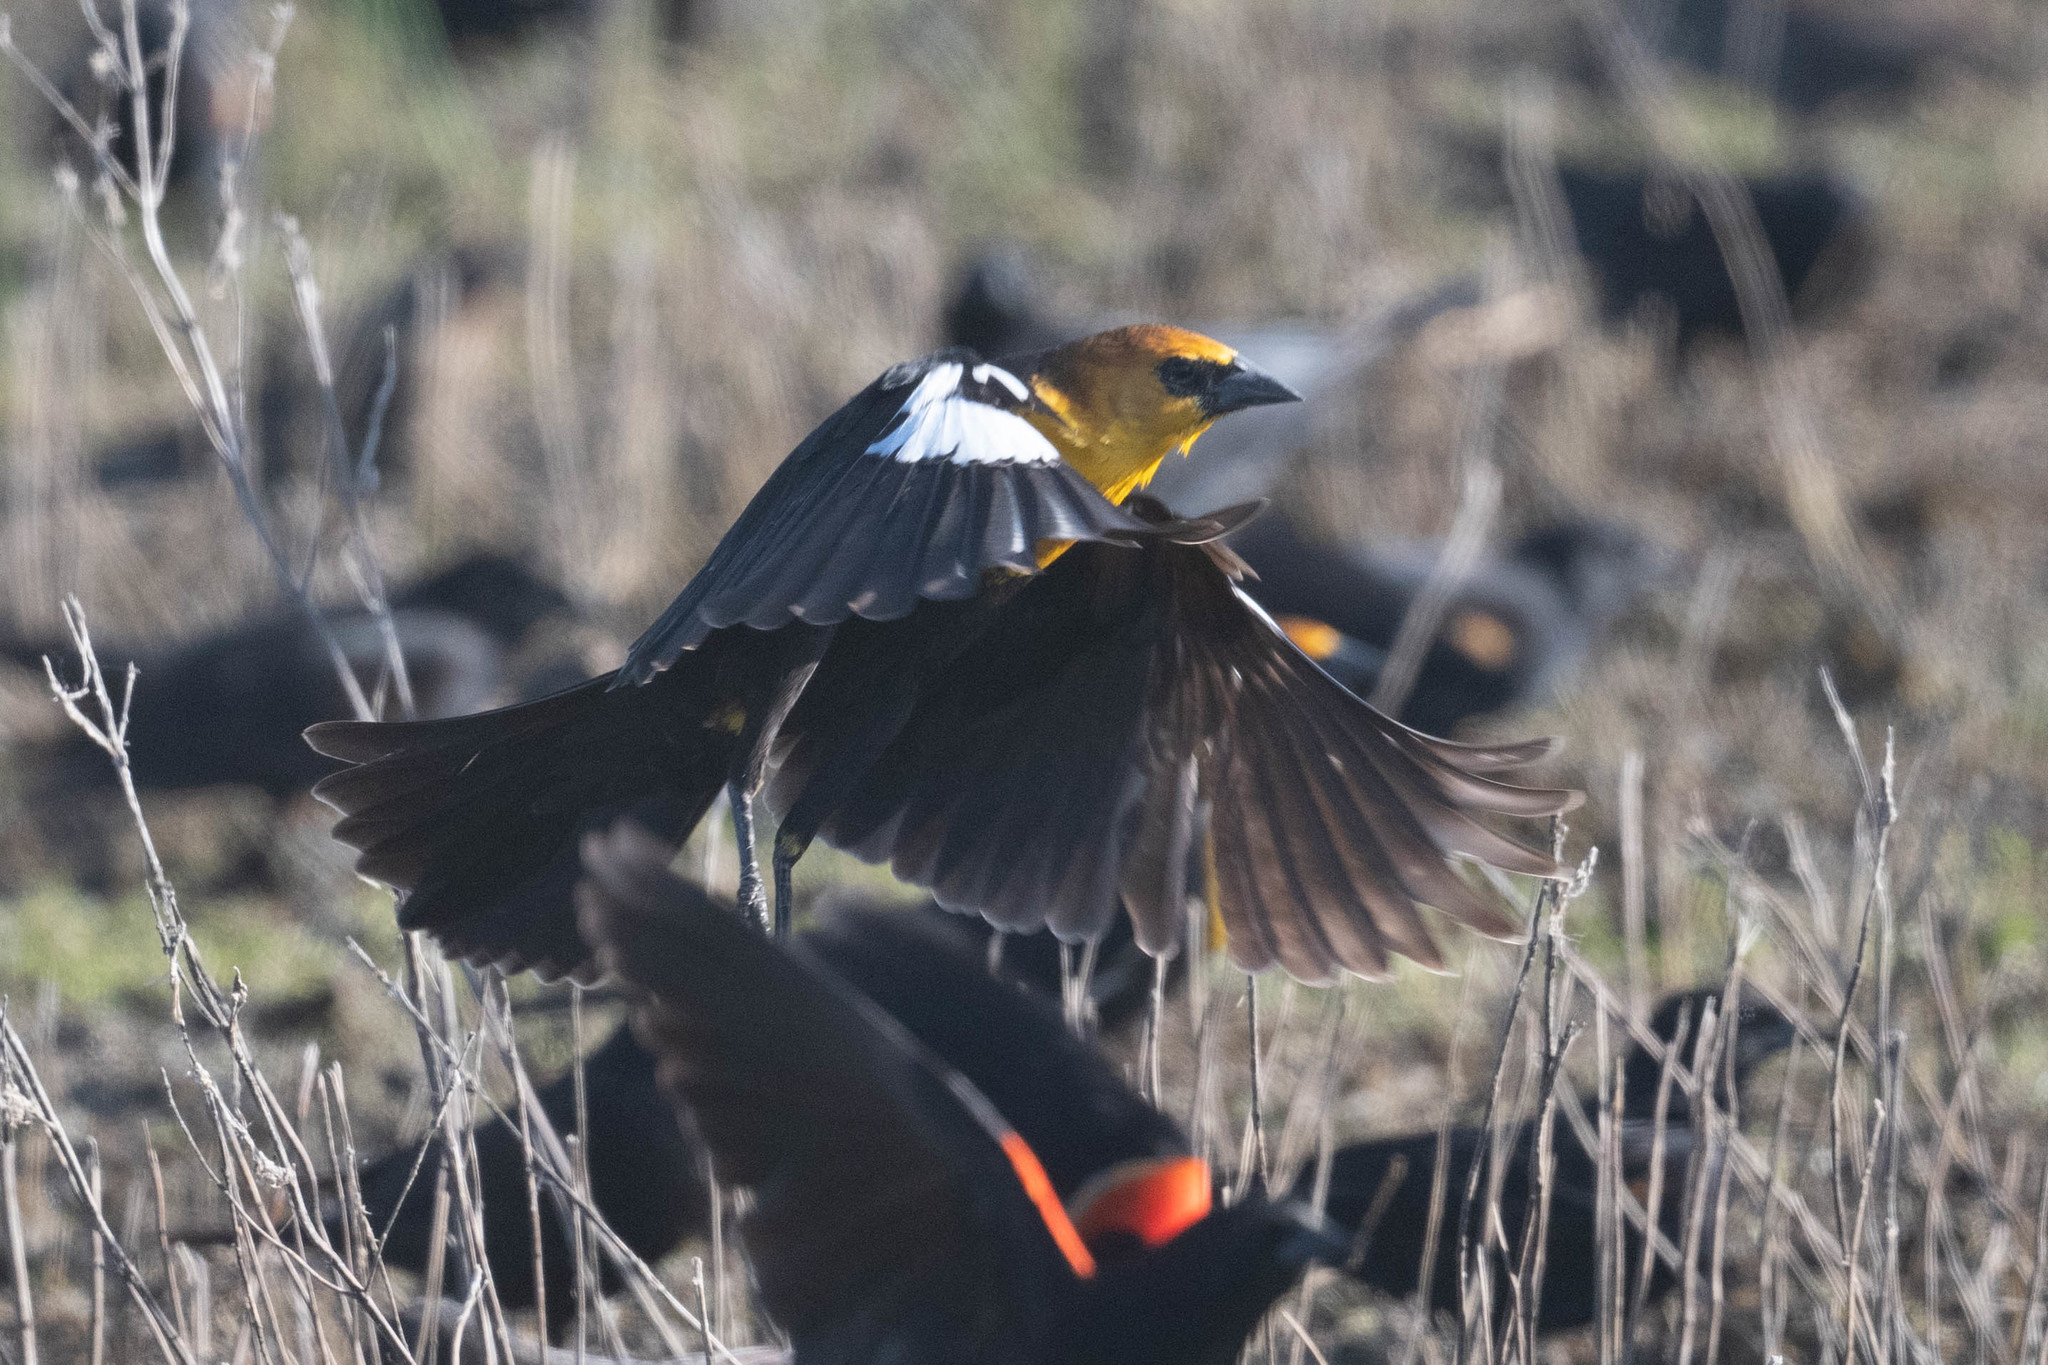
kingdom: Animalia
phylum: Chordata
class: Aves
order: Passeriformes
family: Icteridae
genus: Xanthocephalus
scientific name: Xanthocephalus xanthocephalus
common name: Yellow-headed blackbird
